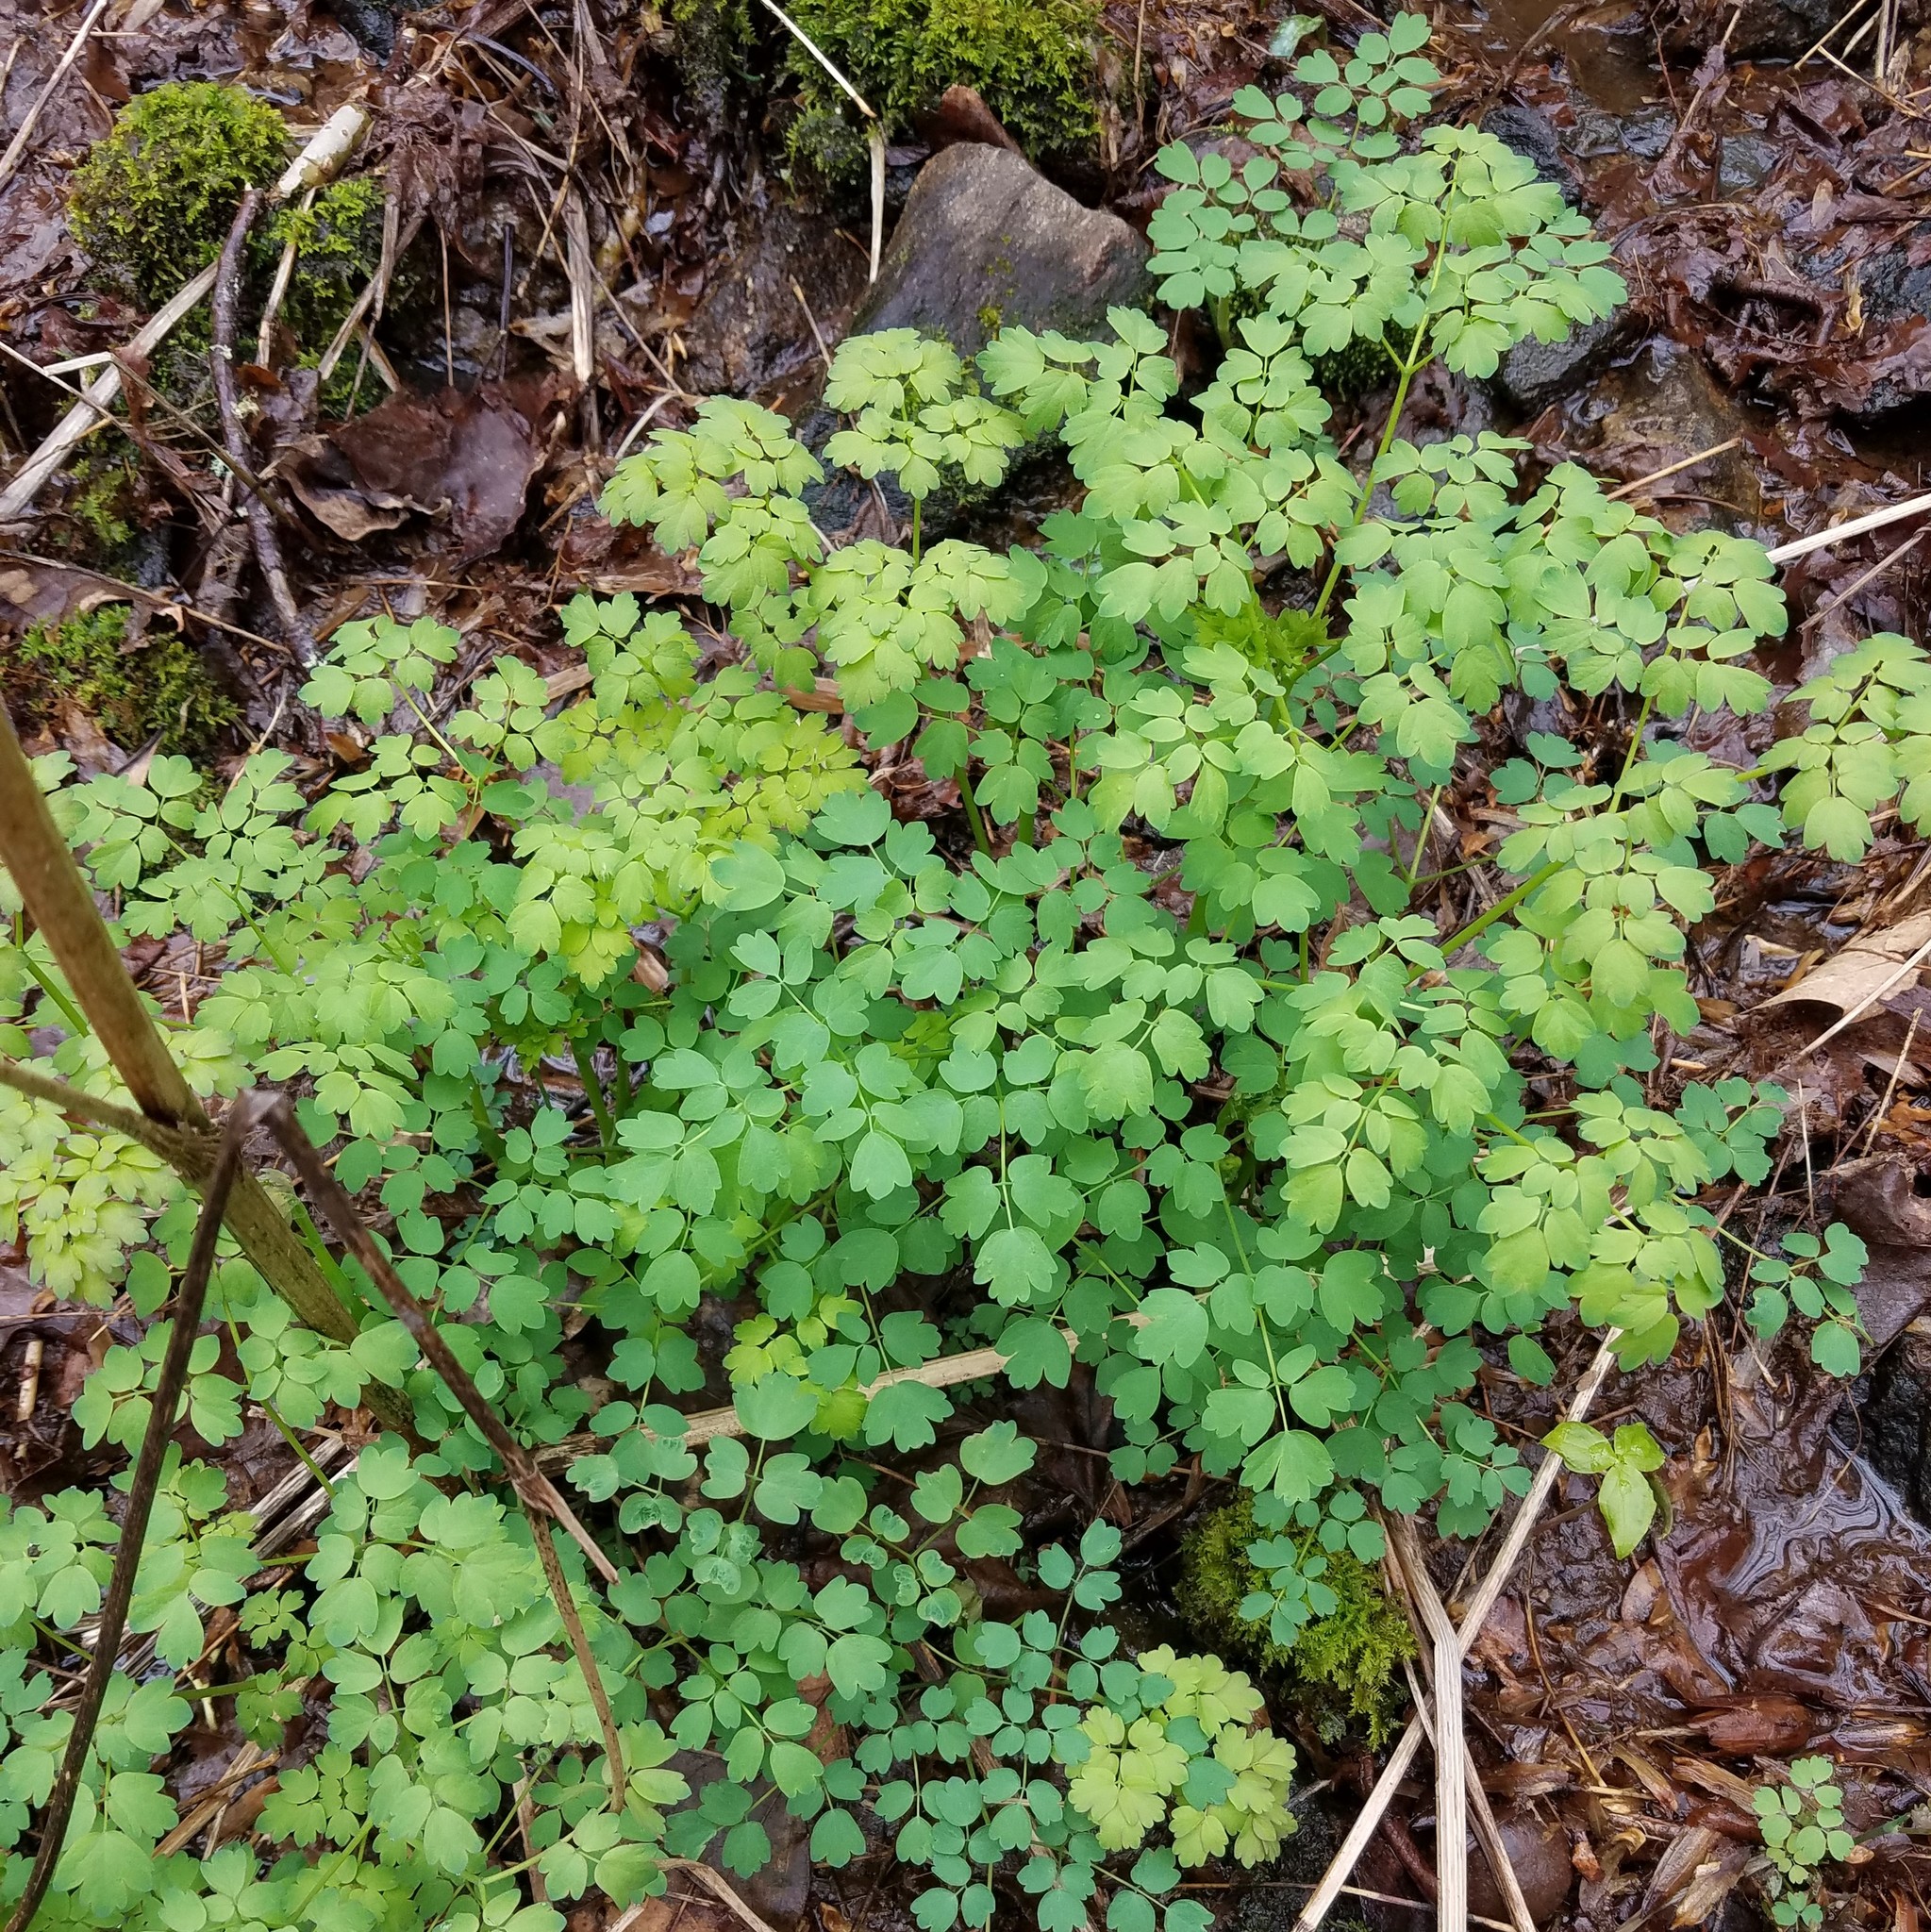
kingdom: Plantae
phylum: Tracheophyta
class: Magnoliopsida
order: Ranunculales
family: Ranunculaceae
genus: Thalictrum
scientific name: Thalictrum pubescens
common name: King-of-the-meadow
